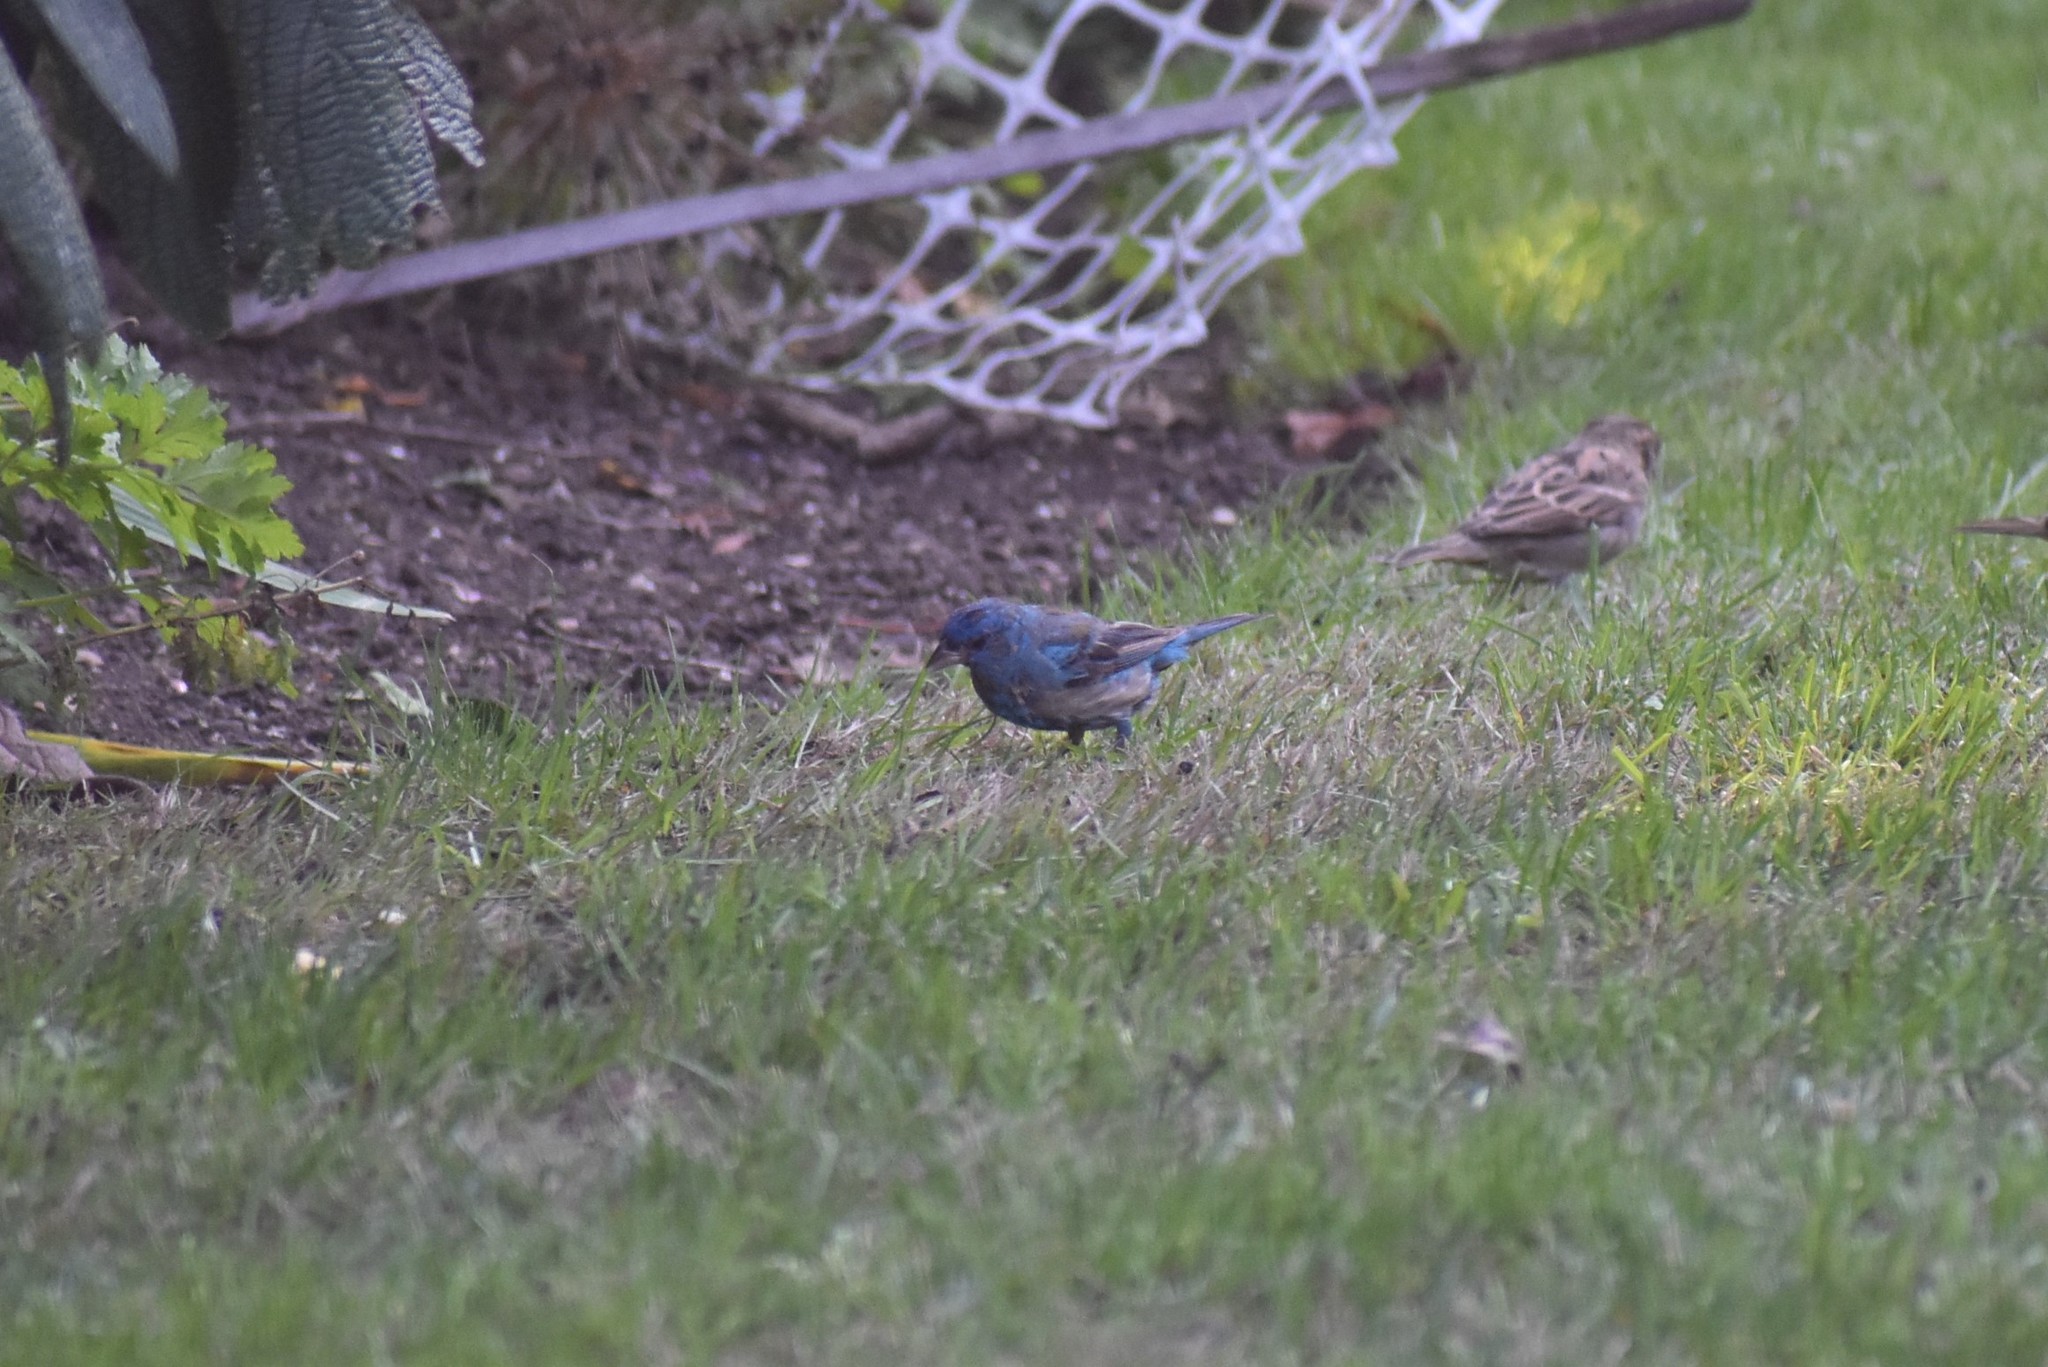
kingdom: Animalia
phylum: Chordata
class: Aves
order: Passeriformes
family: Cardinalidae
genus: Passerina
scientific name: Passerina cyanea
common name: Indigo bunting
